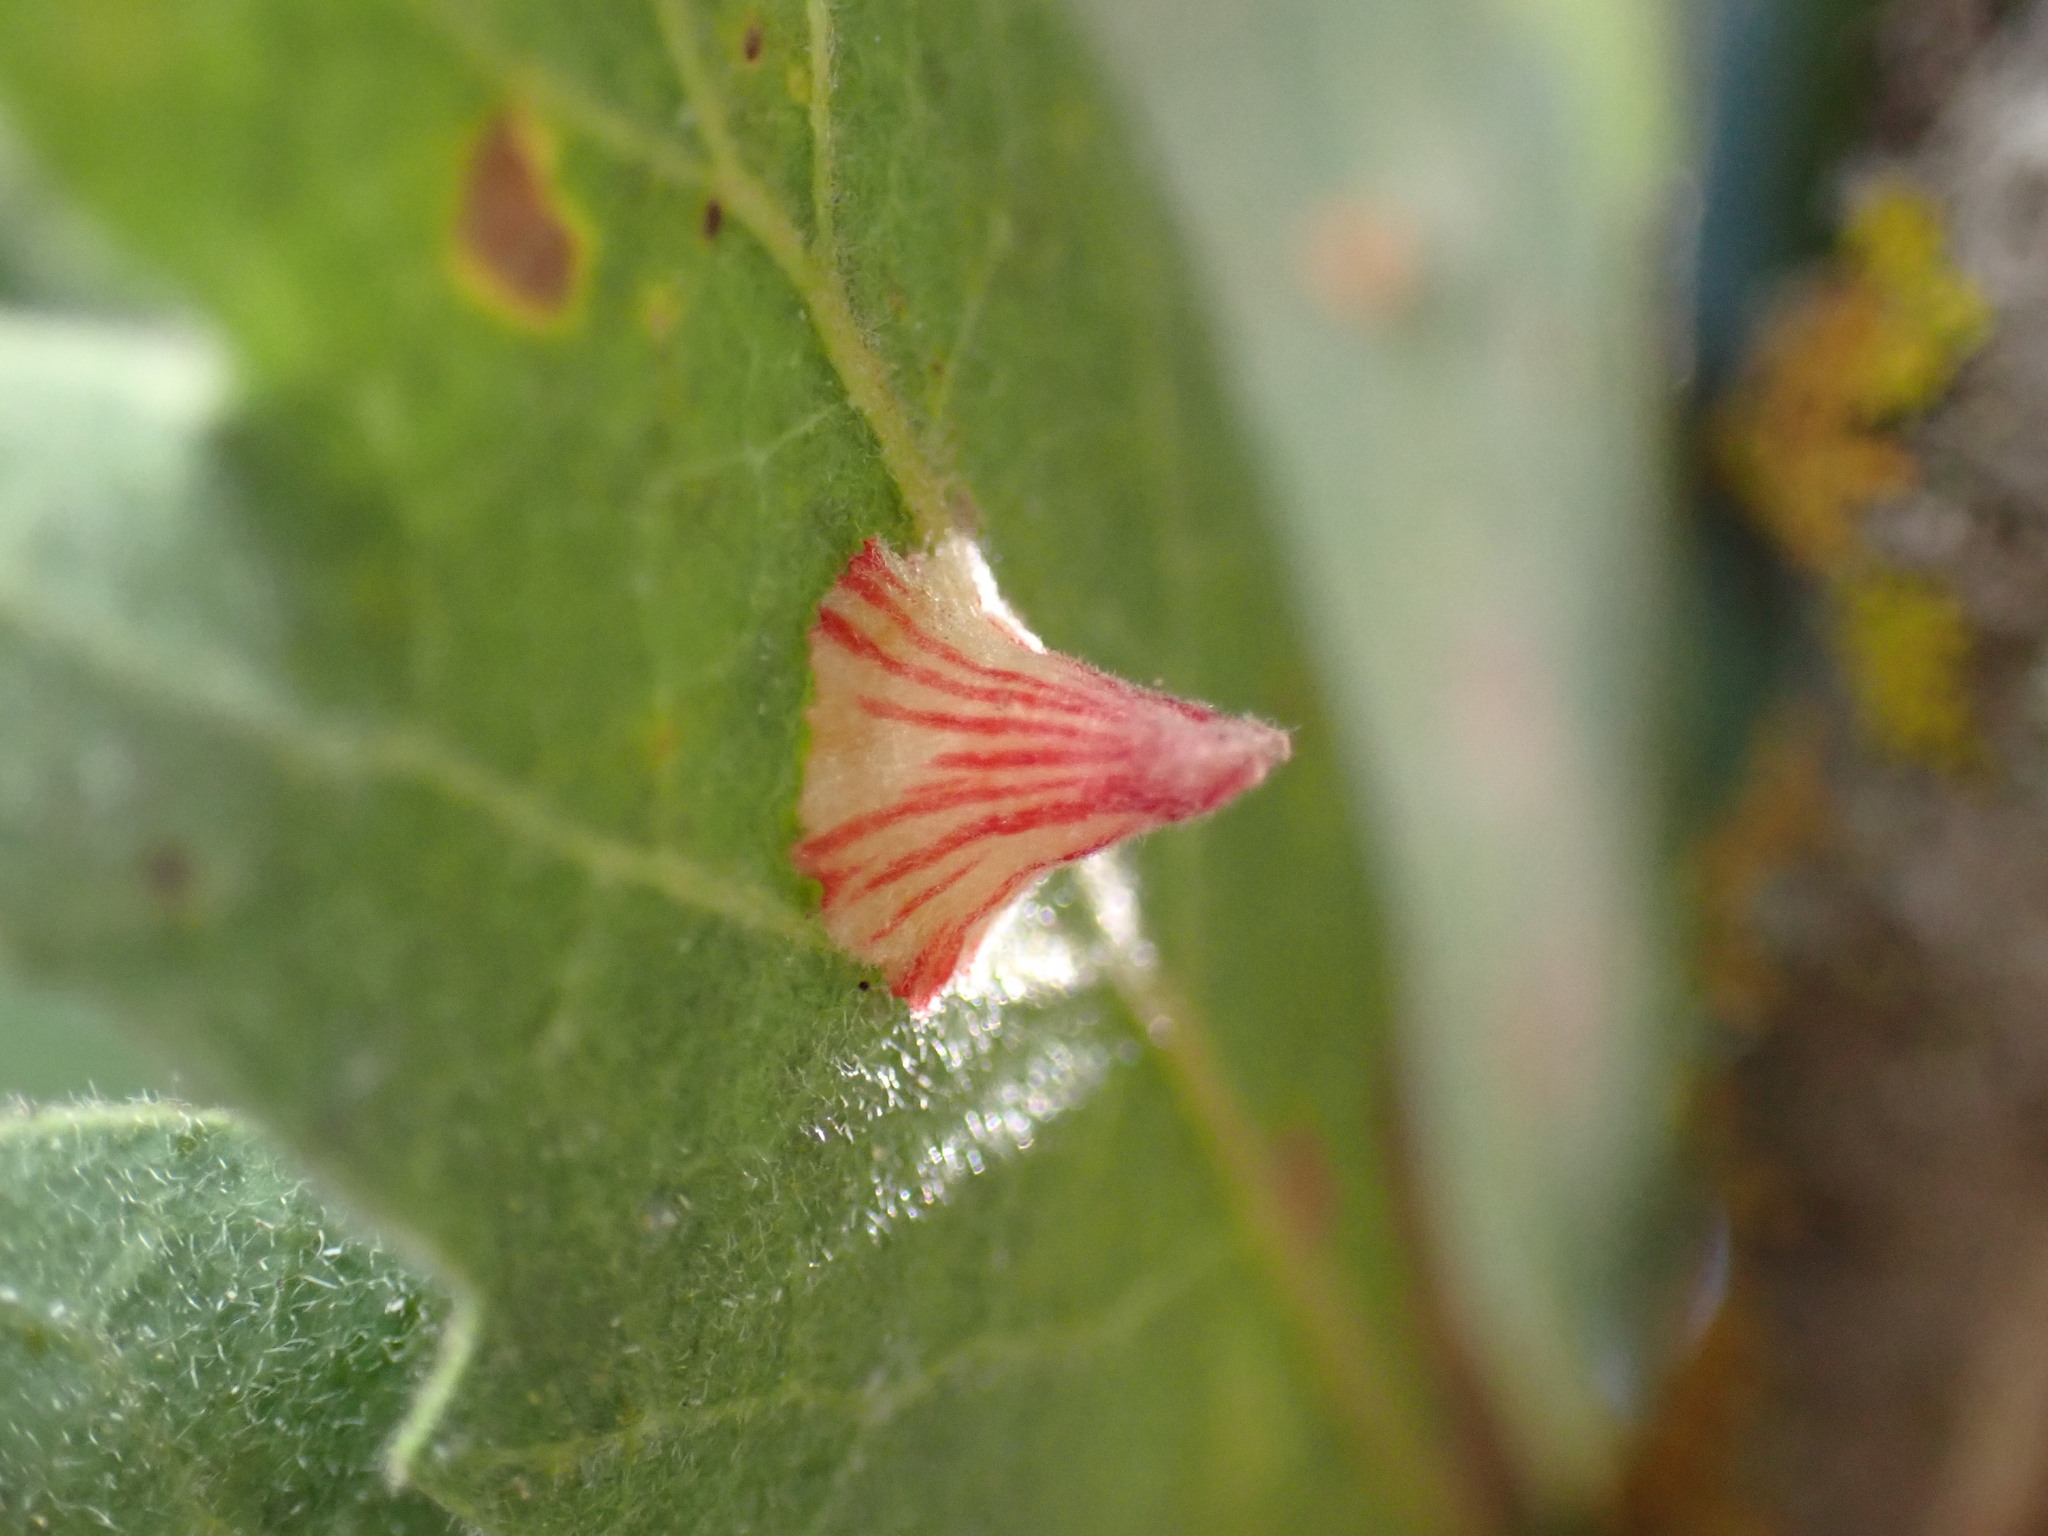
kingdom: Animalia
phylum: Arthropoda
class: Insecta
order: Hymenoptera
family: Cynipidae
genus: Andricus
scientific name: Andricus
